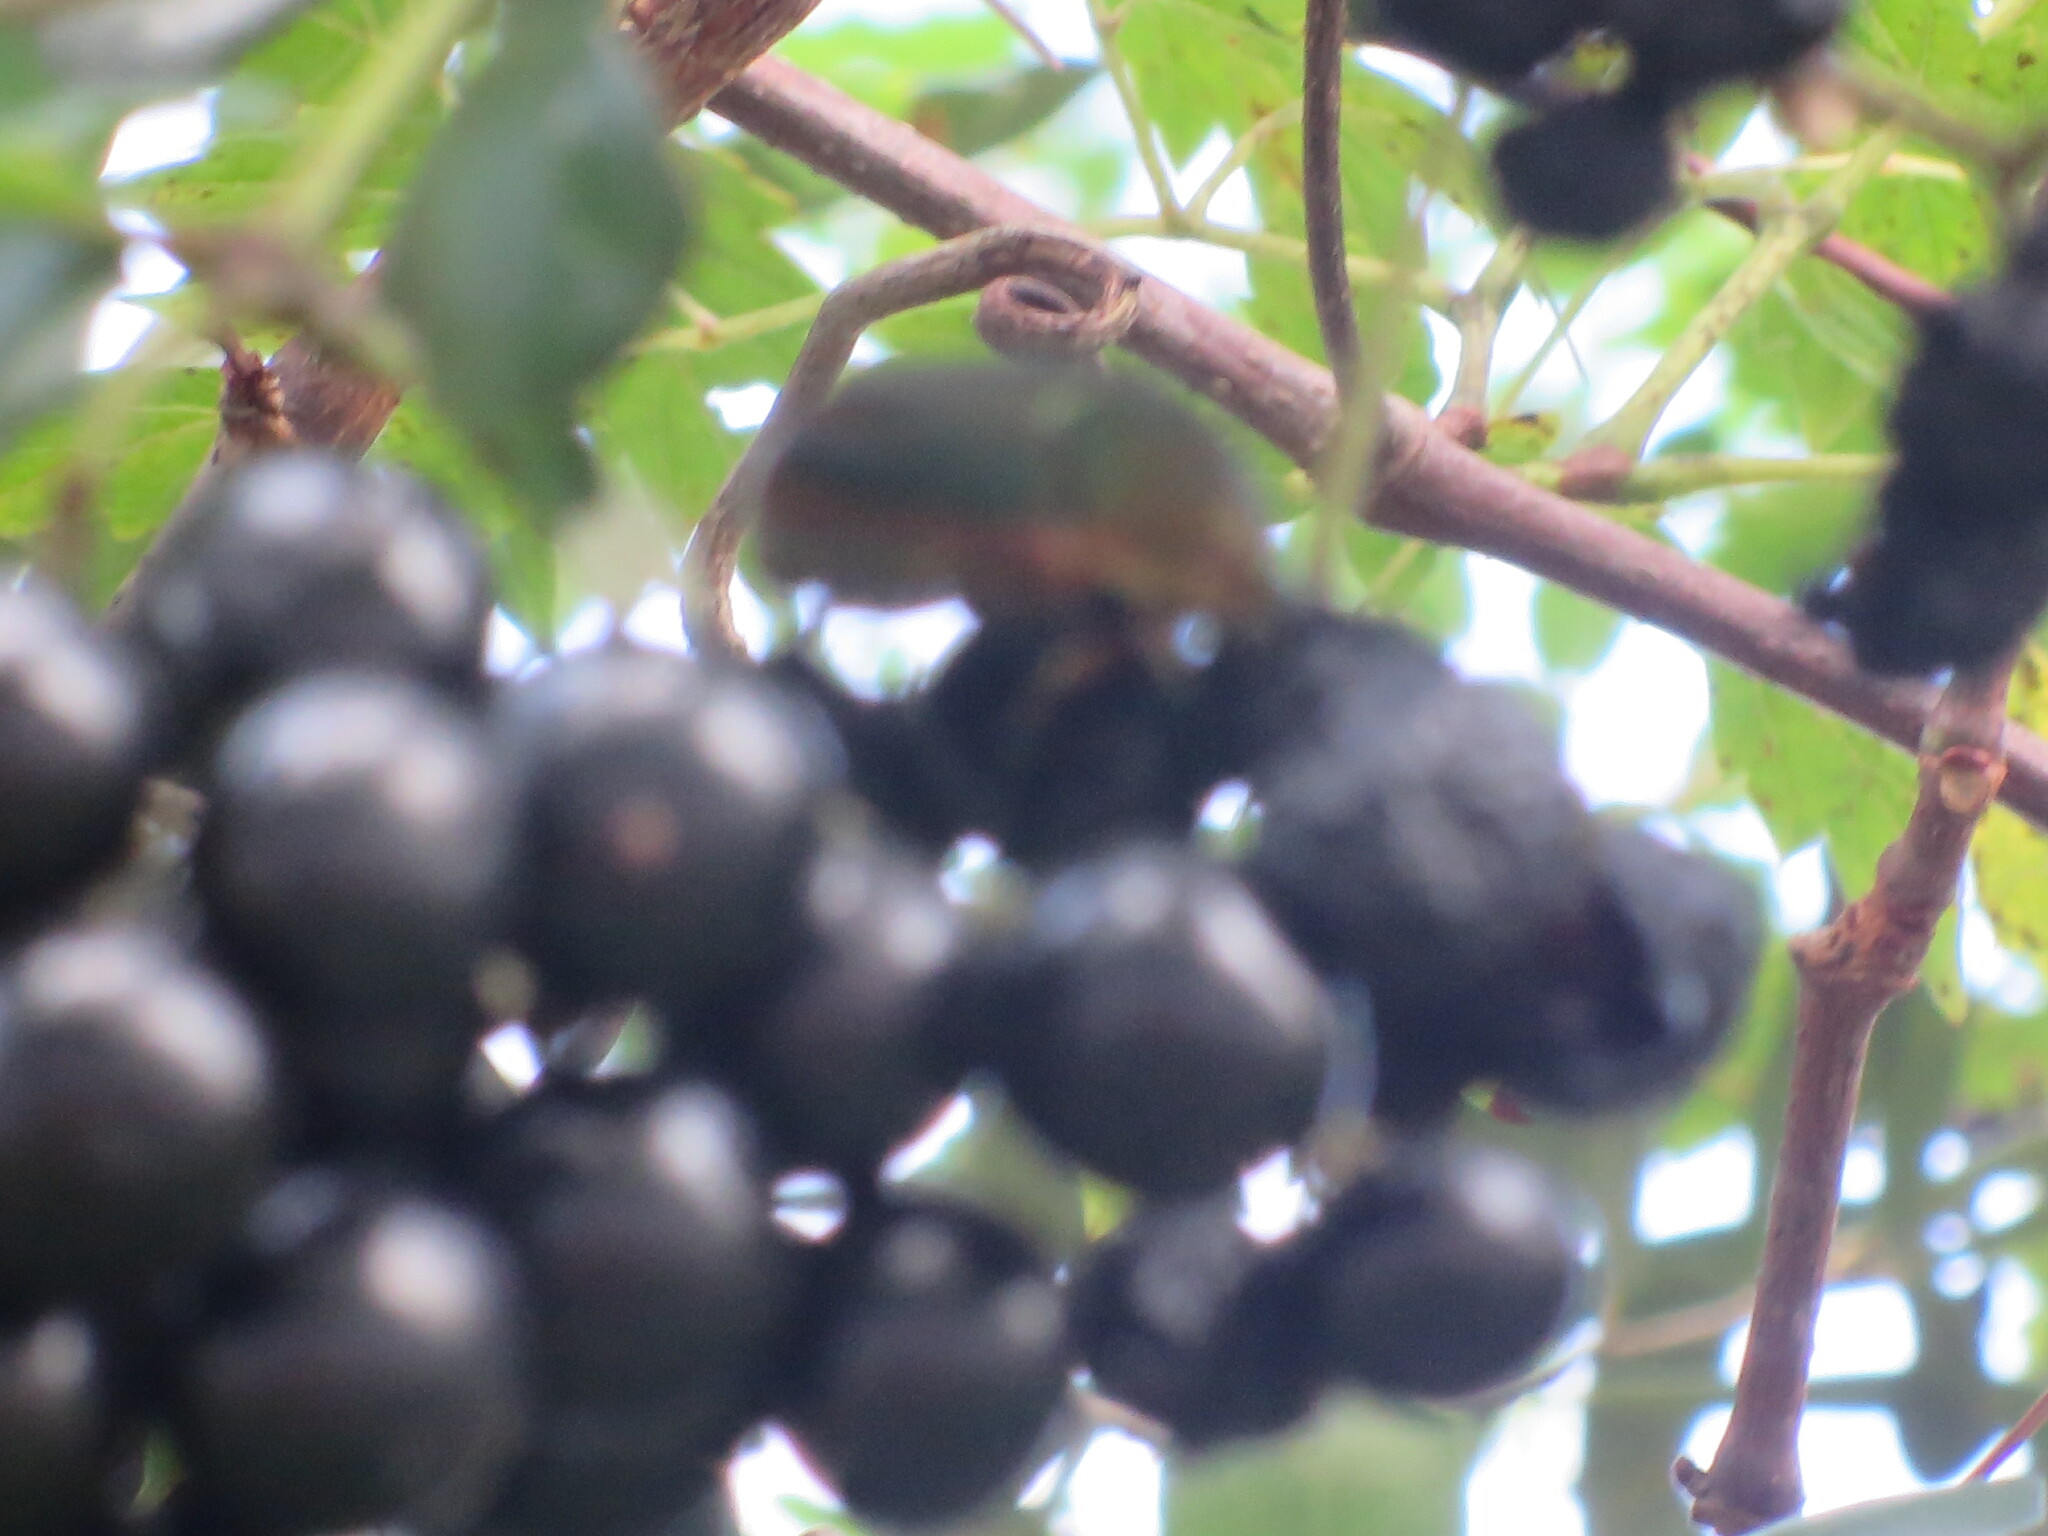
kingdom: Animalia
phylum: Arthropoda
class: Insecta
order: Coleoptera
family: Scarabaeidae
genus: Cotinis
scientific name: Cotinis nitida
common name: Common green june beetle
